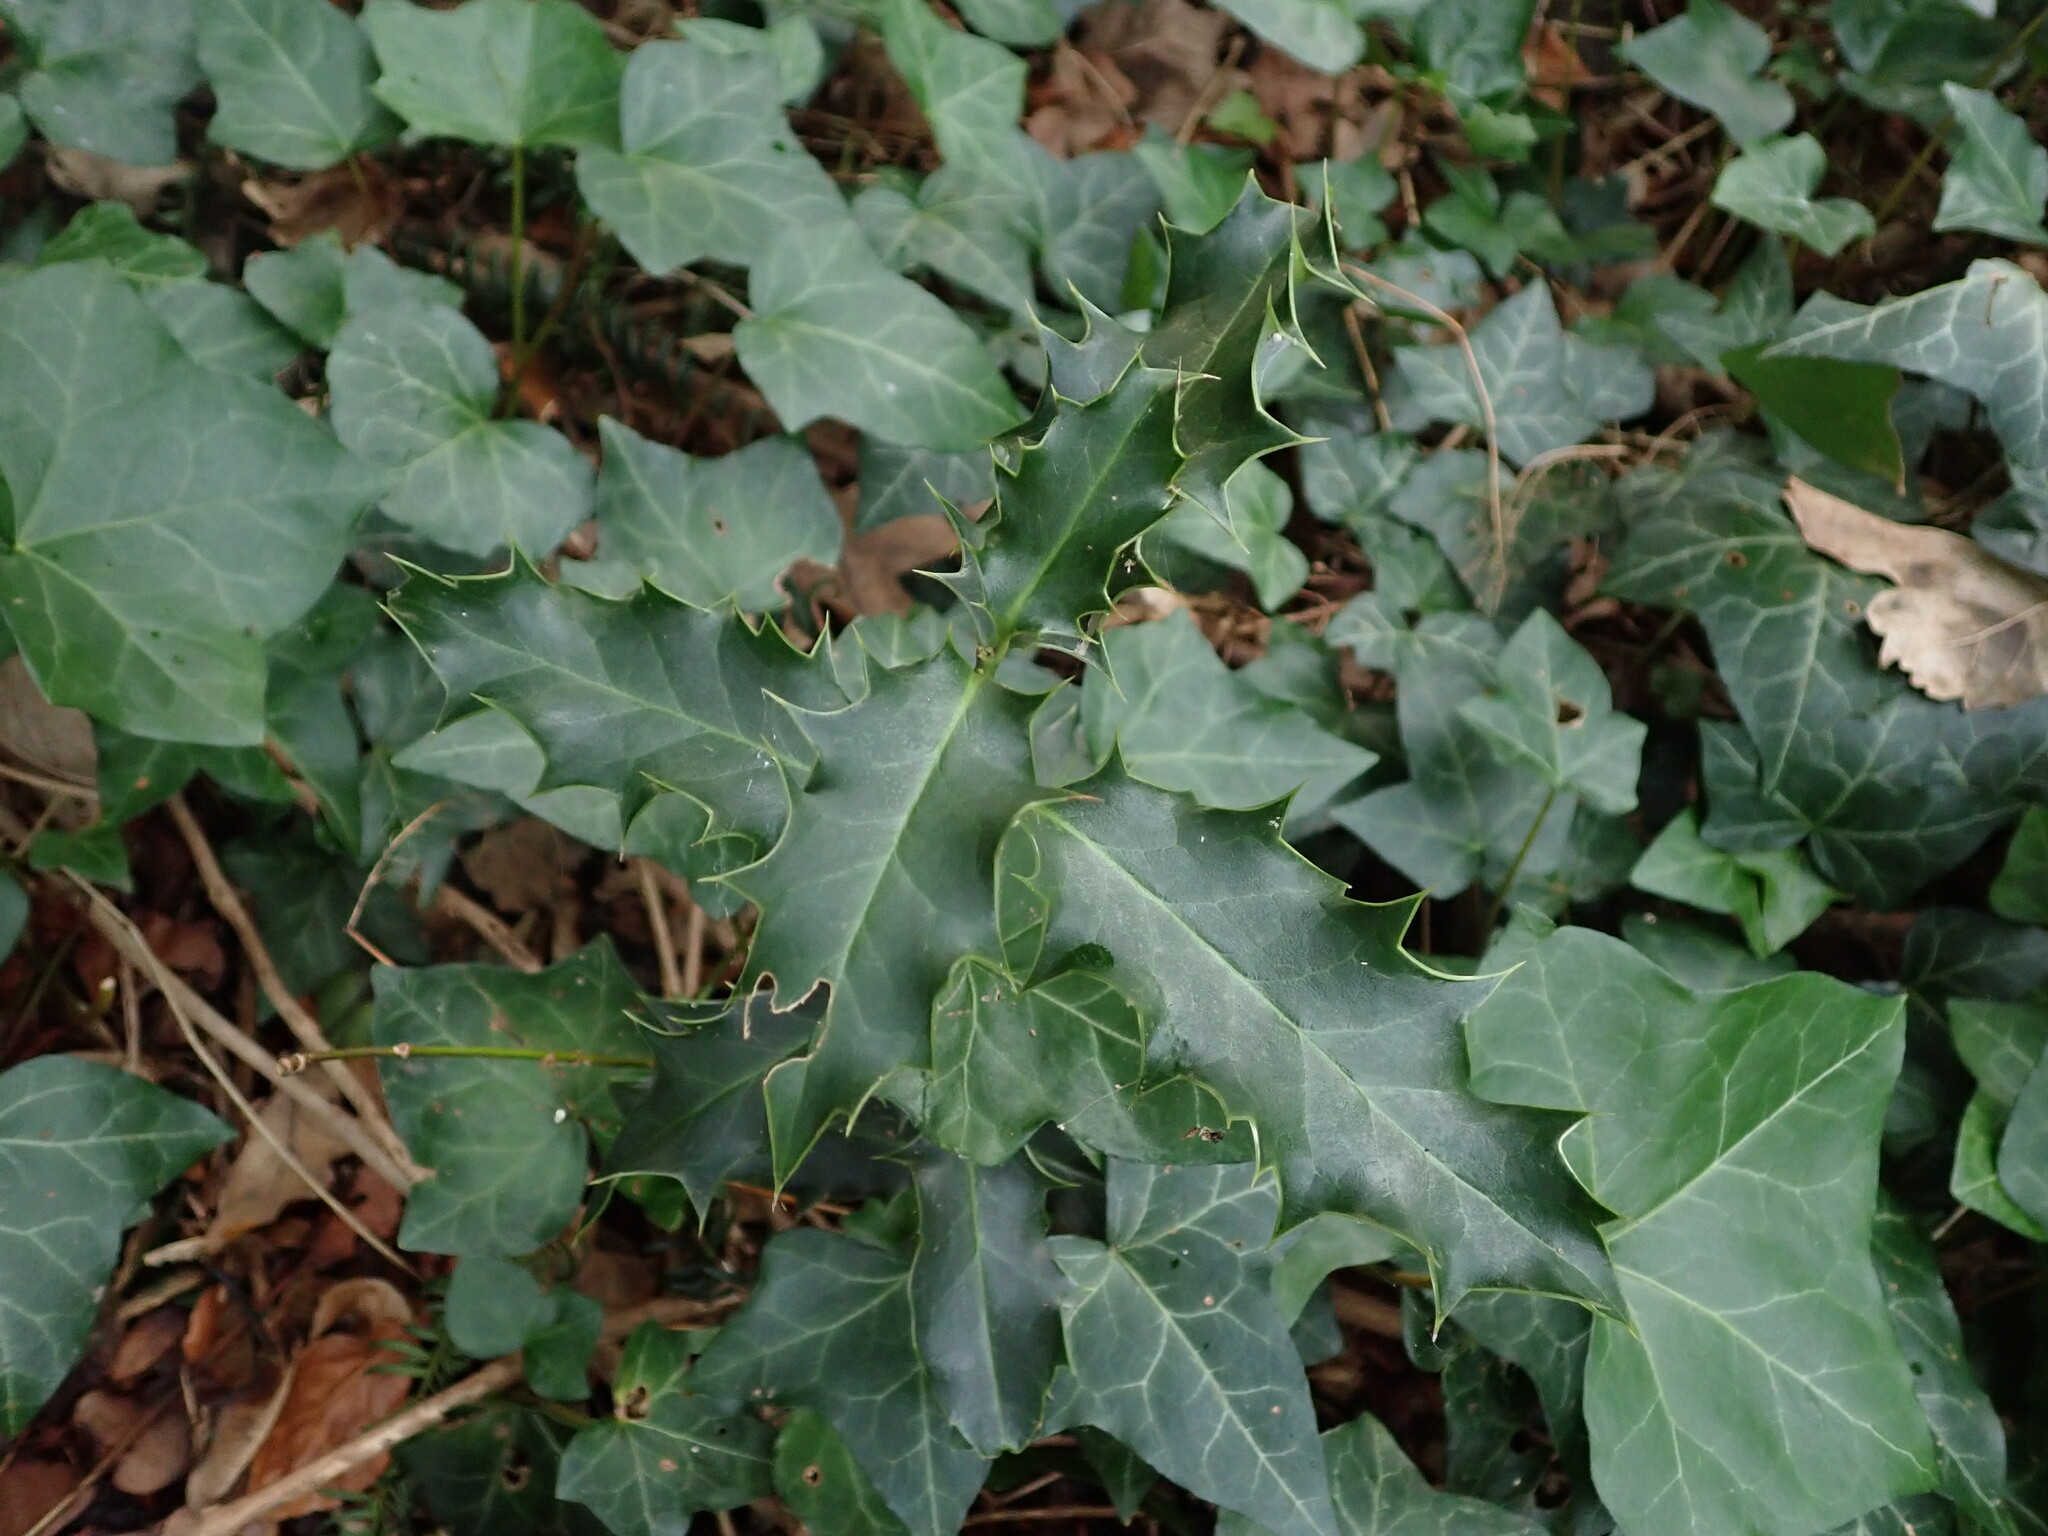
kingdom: Plantae
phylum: Tracheophyta
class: Magnoliopsida
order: Aquifoliales
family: Aquifoliaceae
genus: Ilex
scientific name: Ilex aquifolium
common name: English holly
